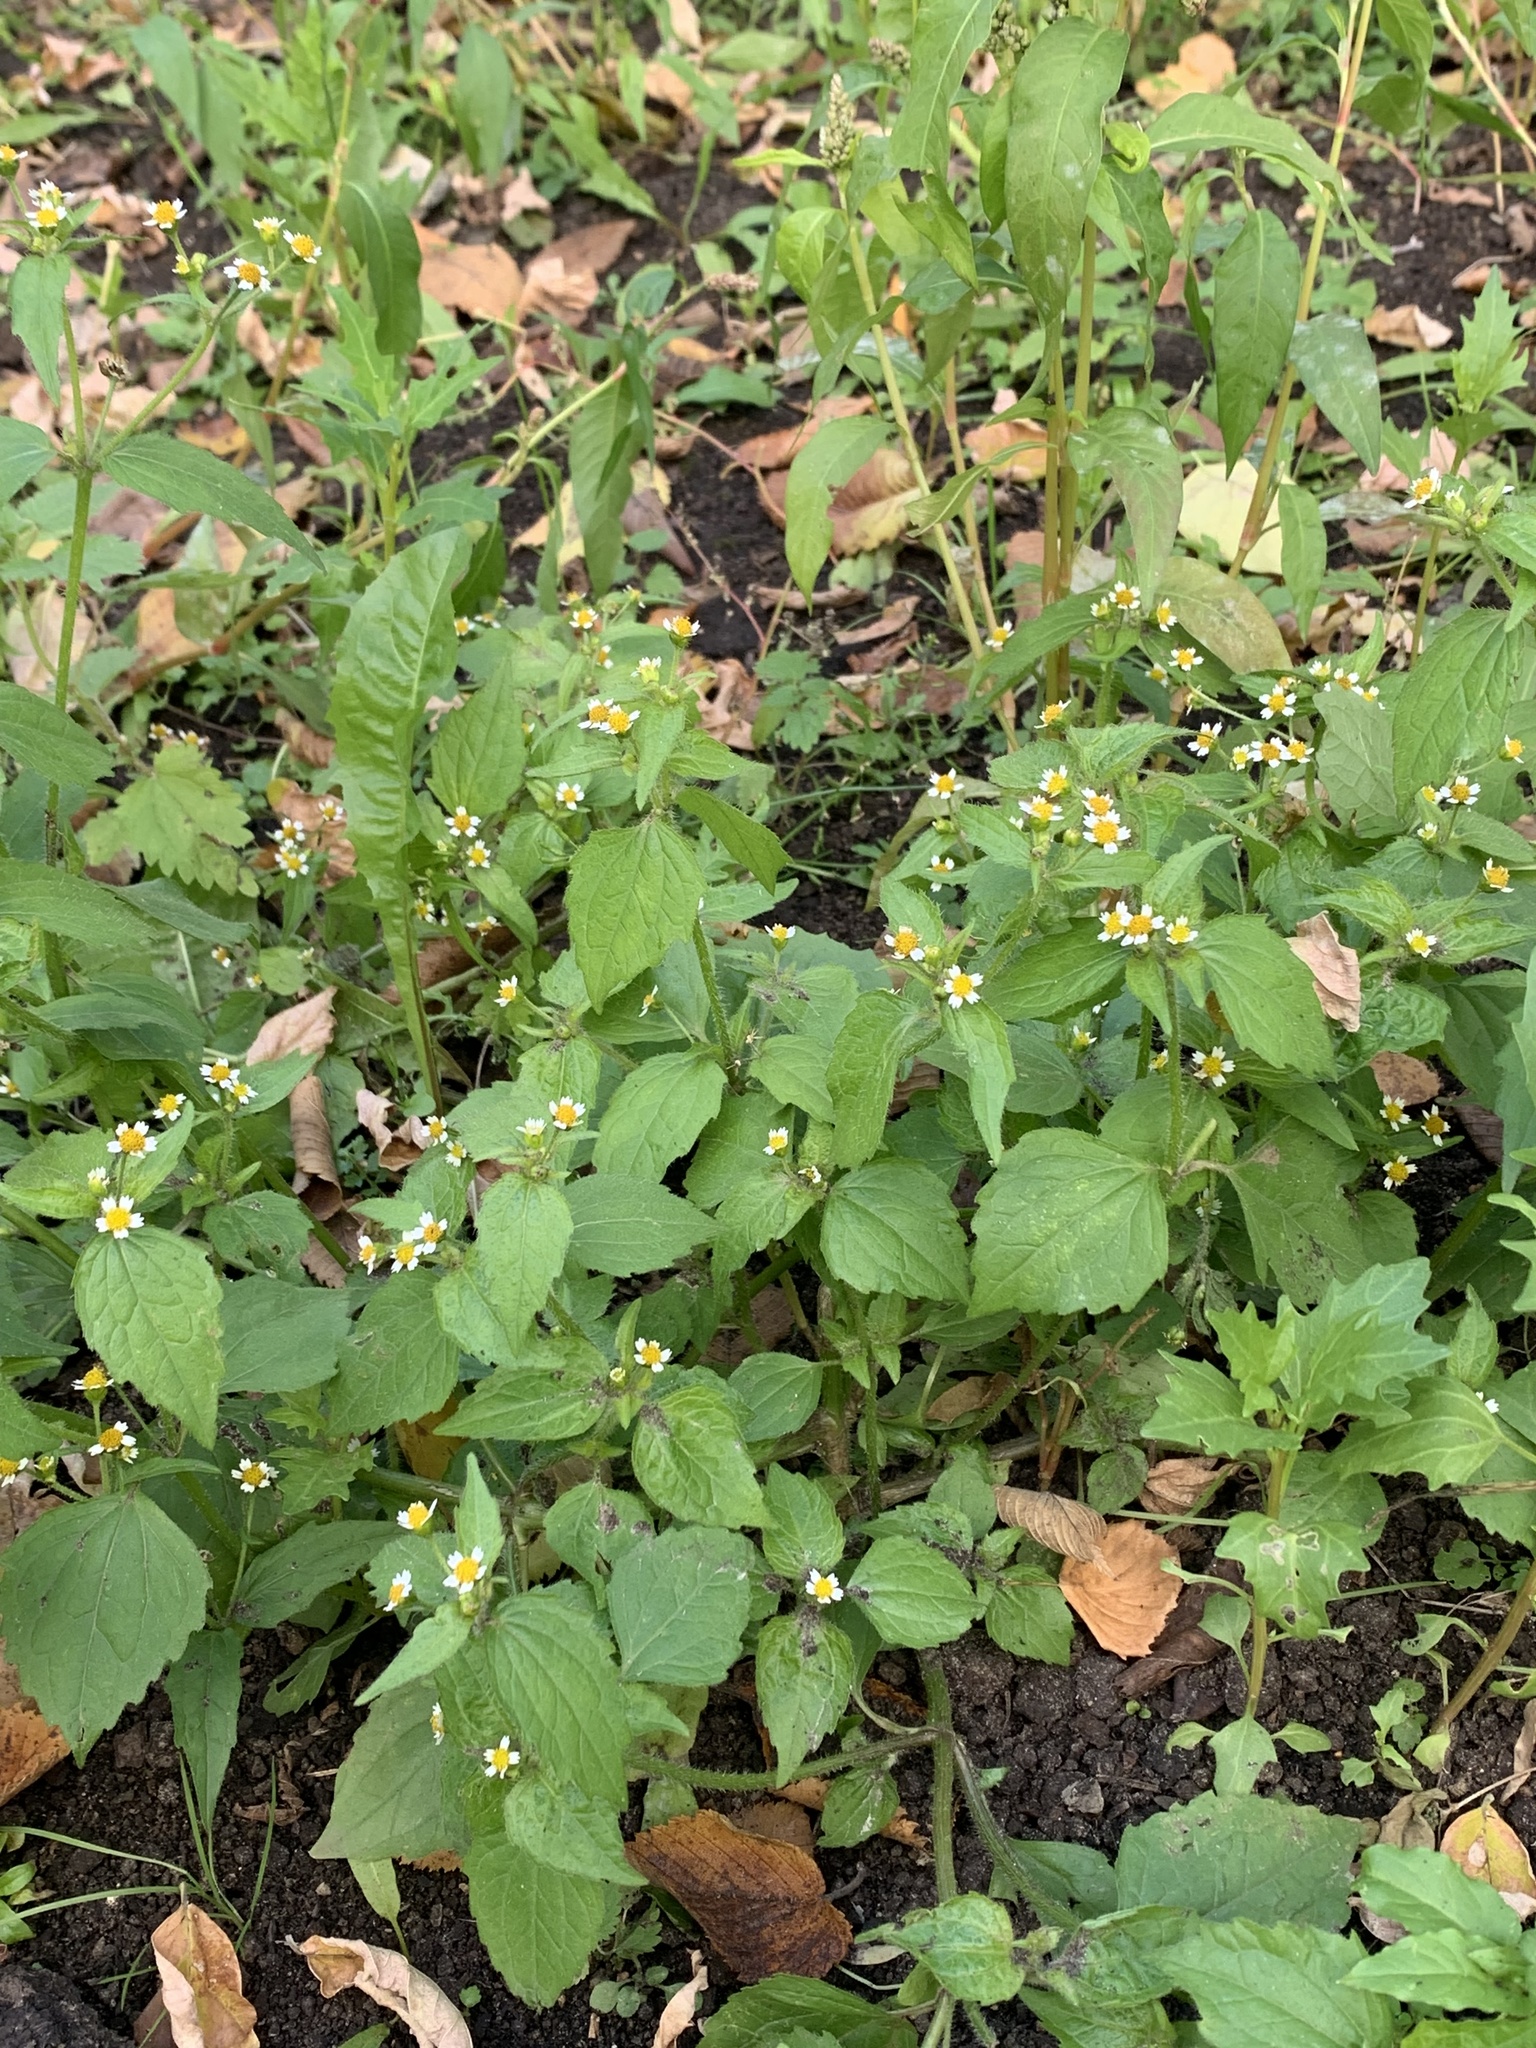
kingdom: Plantae
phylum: Tracheophyta
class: Magnoliopsida
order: Asterales
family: Asteraceae
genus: Galinsoga
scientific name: Galinsoga quadriradiata
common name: Shaggy soldier
